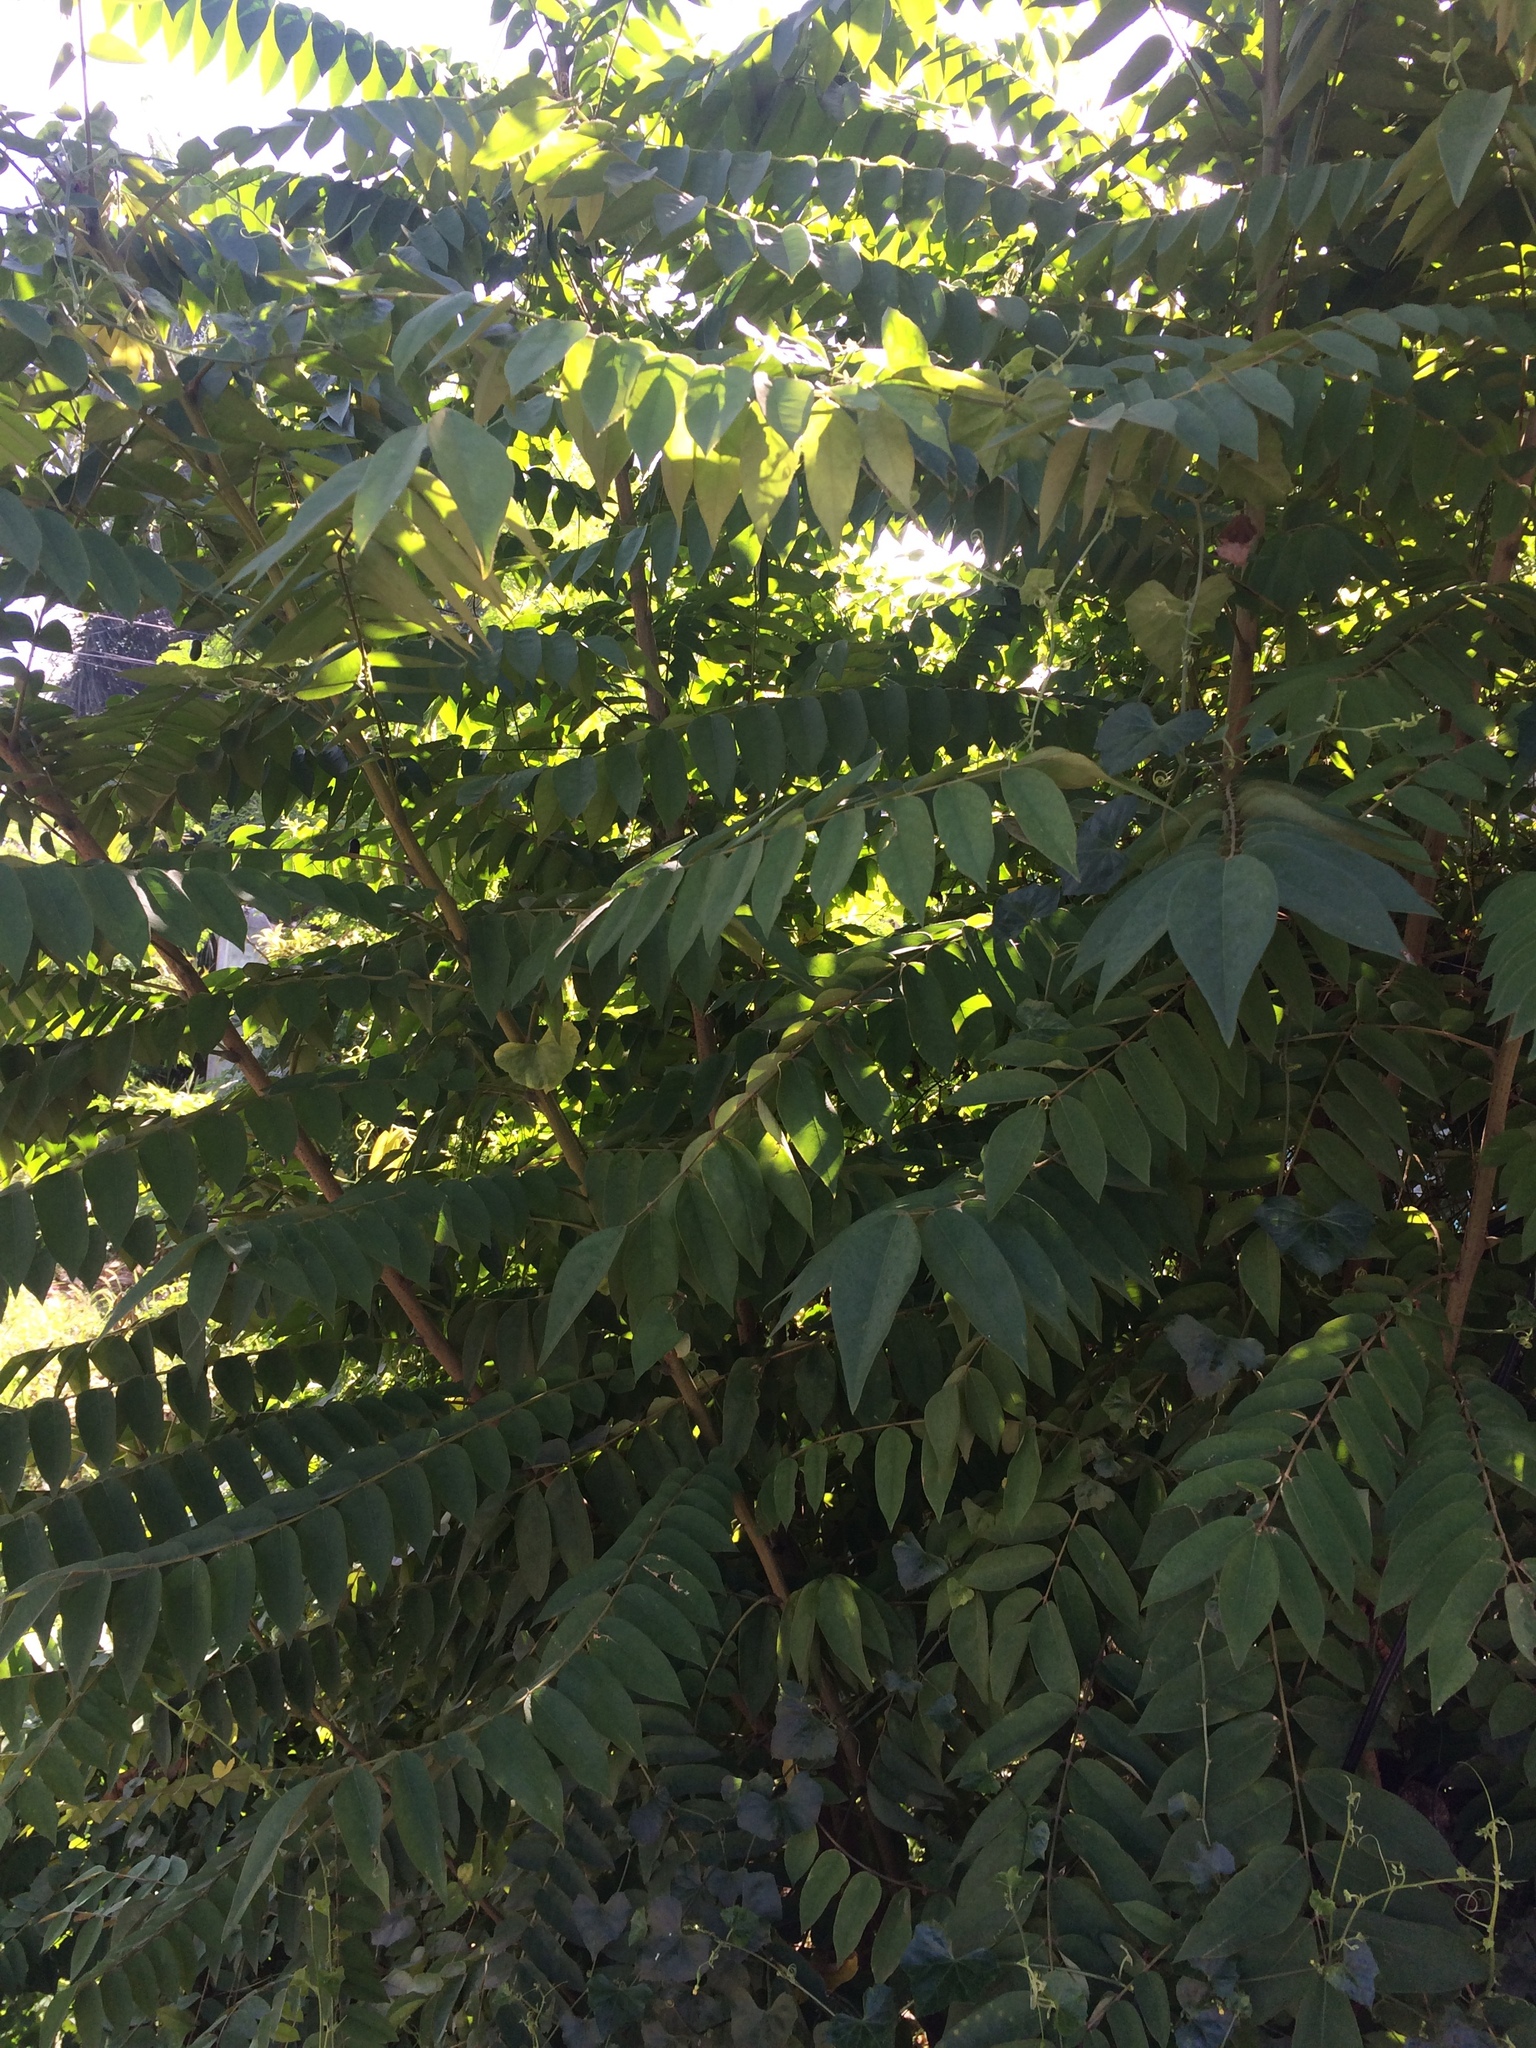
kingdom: Plantae
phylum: Tracheophyta
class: Magnoliopsida
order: Oxalidales
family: Oxalidaceae
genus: Averrhoa
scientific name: Averrhoa bilimbi
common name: Bilimbi
